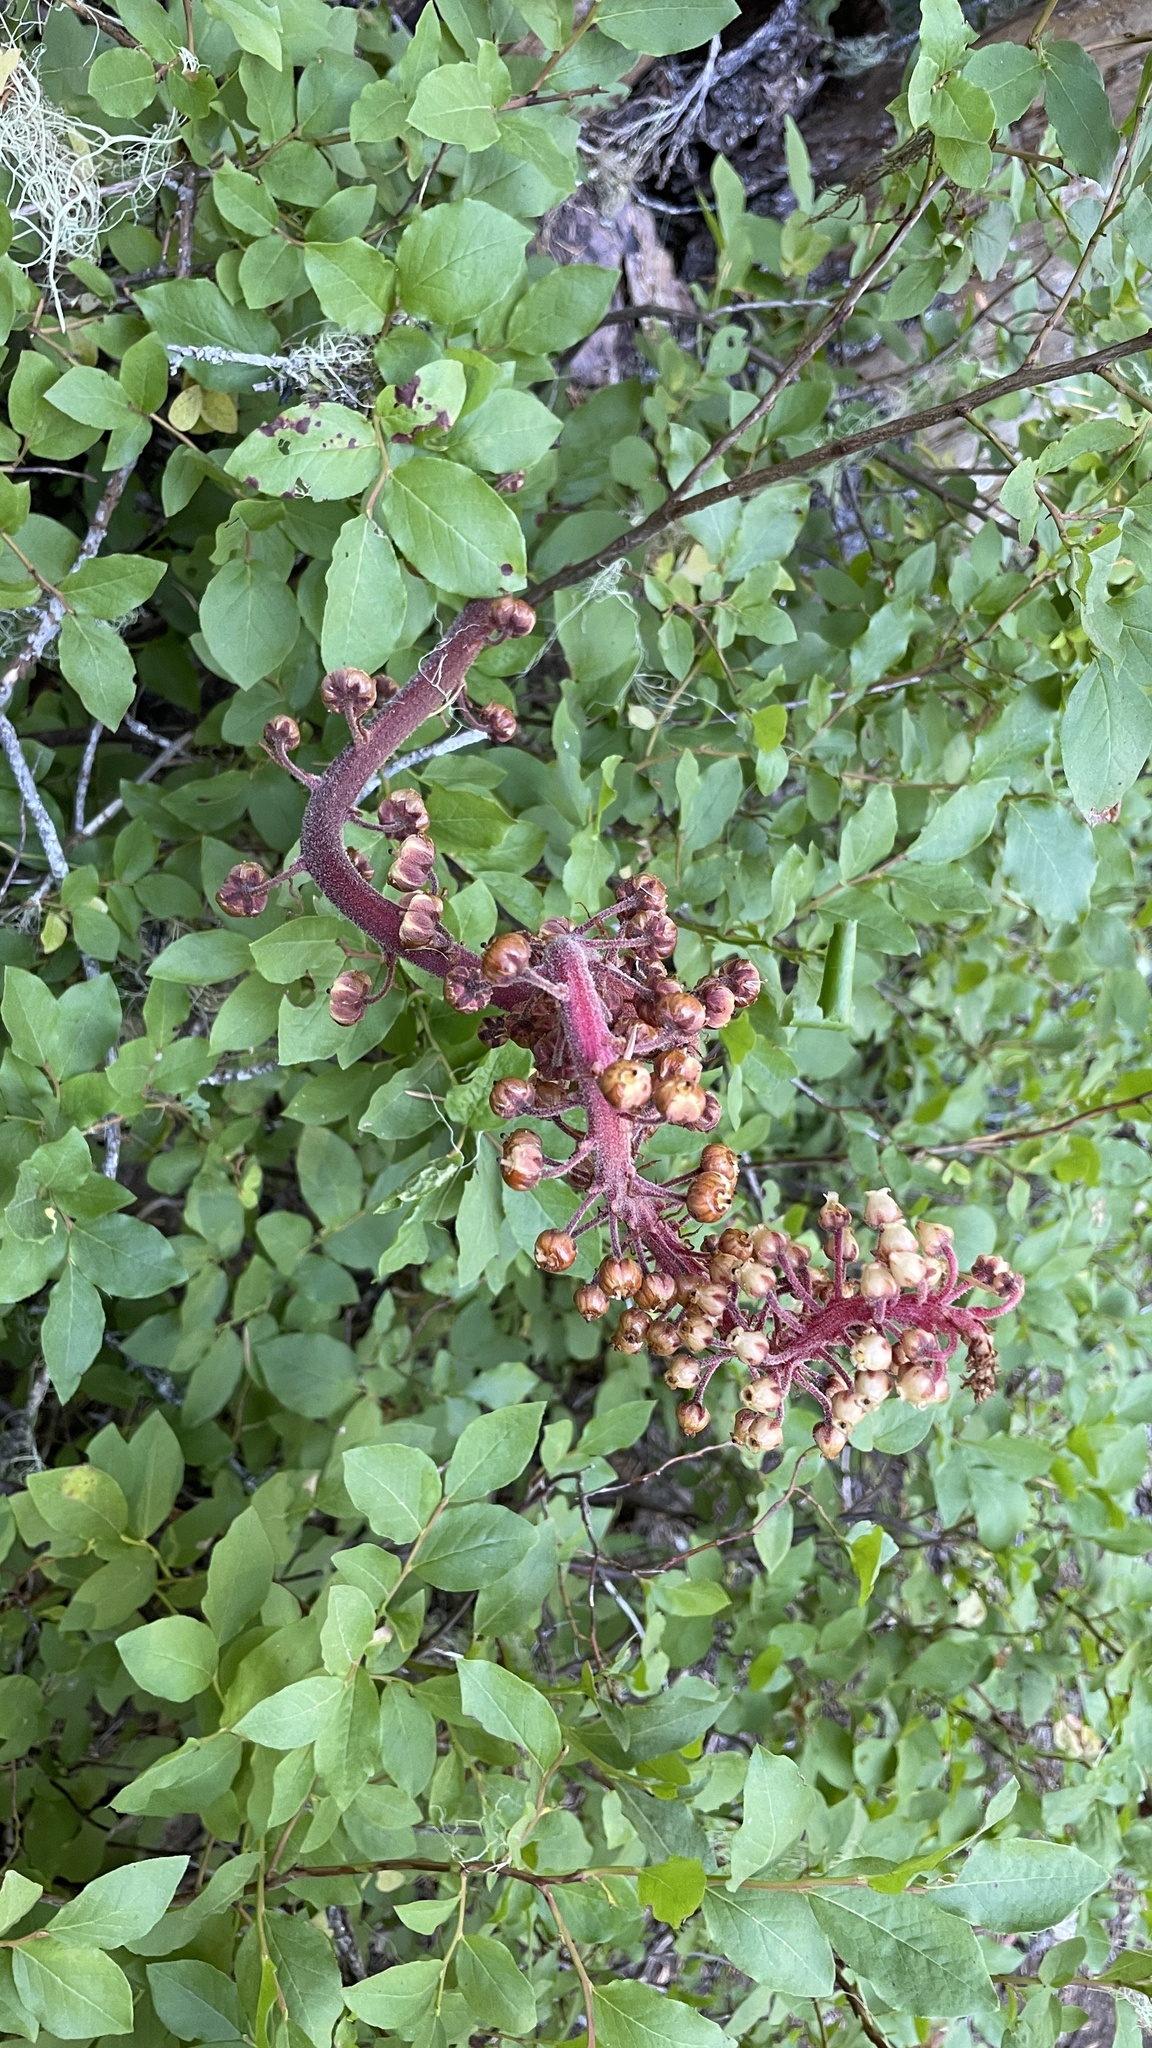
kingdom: Plantae
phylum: Tracheophyta
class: Magnoliopsida
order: Ericales
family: Ericaceae
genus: Pterospora
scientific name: Pterospora andromedea
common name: Giant bird's-nest
